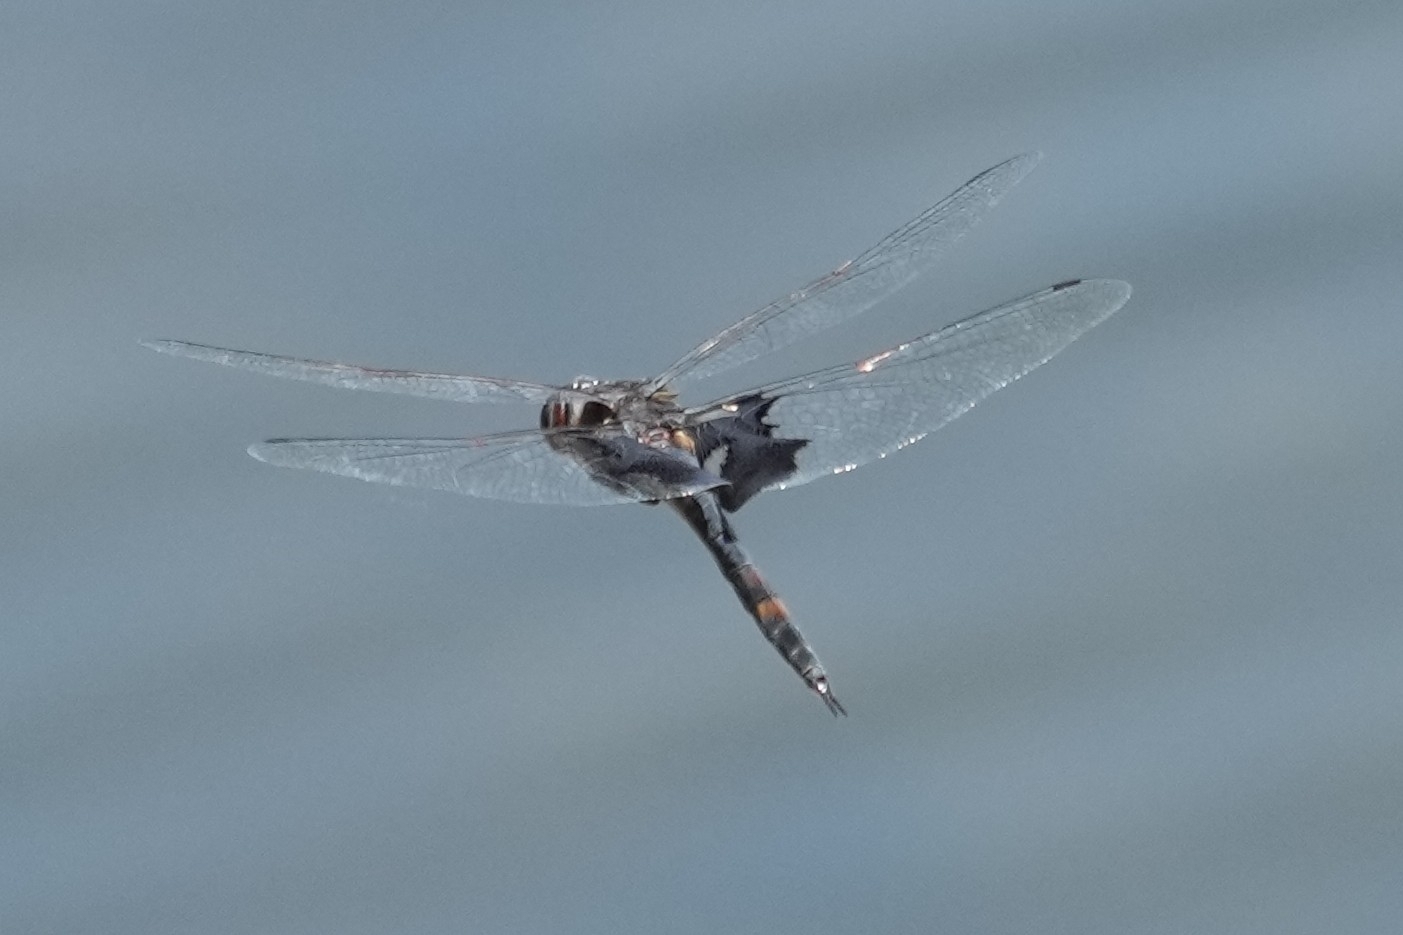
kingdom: Animalia
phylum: Arthropoda
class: Insecta
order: Odonata
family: Libellulidae
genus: Tramea
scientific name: Tramea lacerata
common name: Black saddlebags
